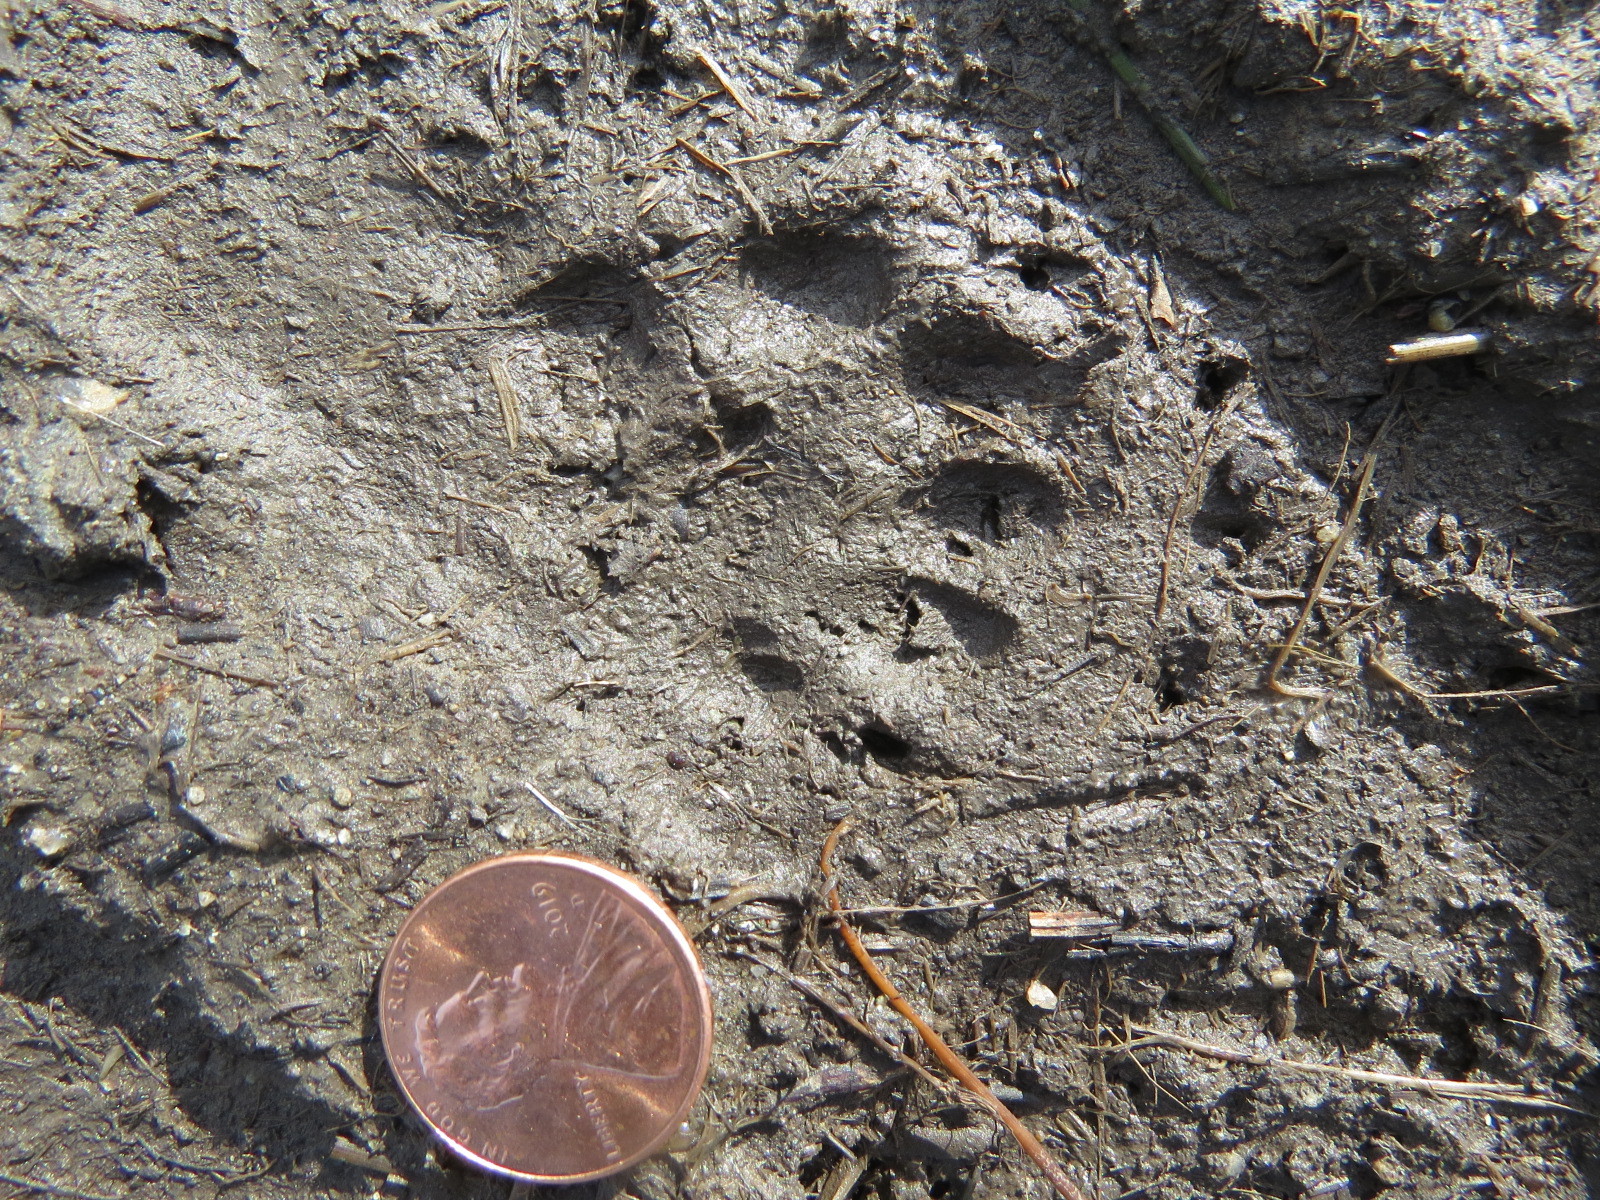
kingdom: Animalia
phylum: Chordata
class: Mammalia
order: Carnivora
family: Mephitidae
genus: Mephitis
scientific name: Mephitis mephitis
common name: Striped skunk
